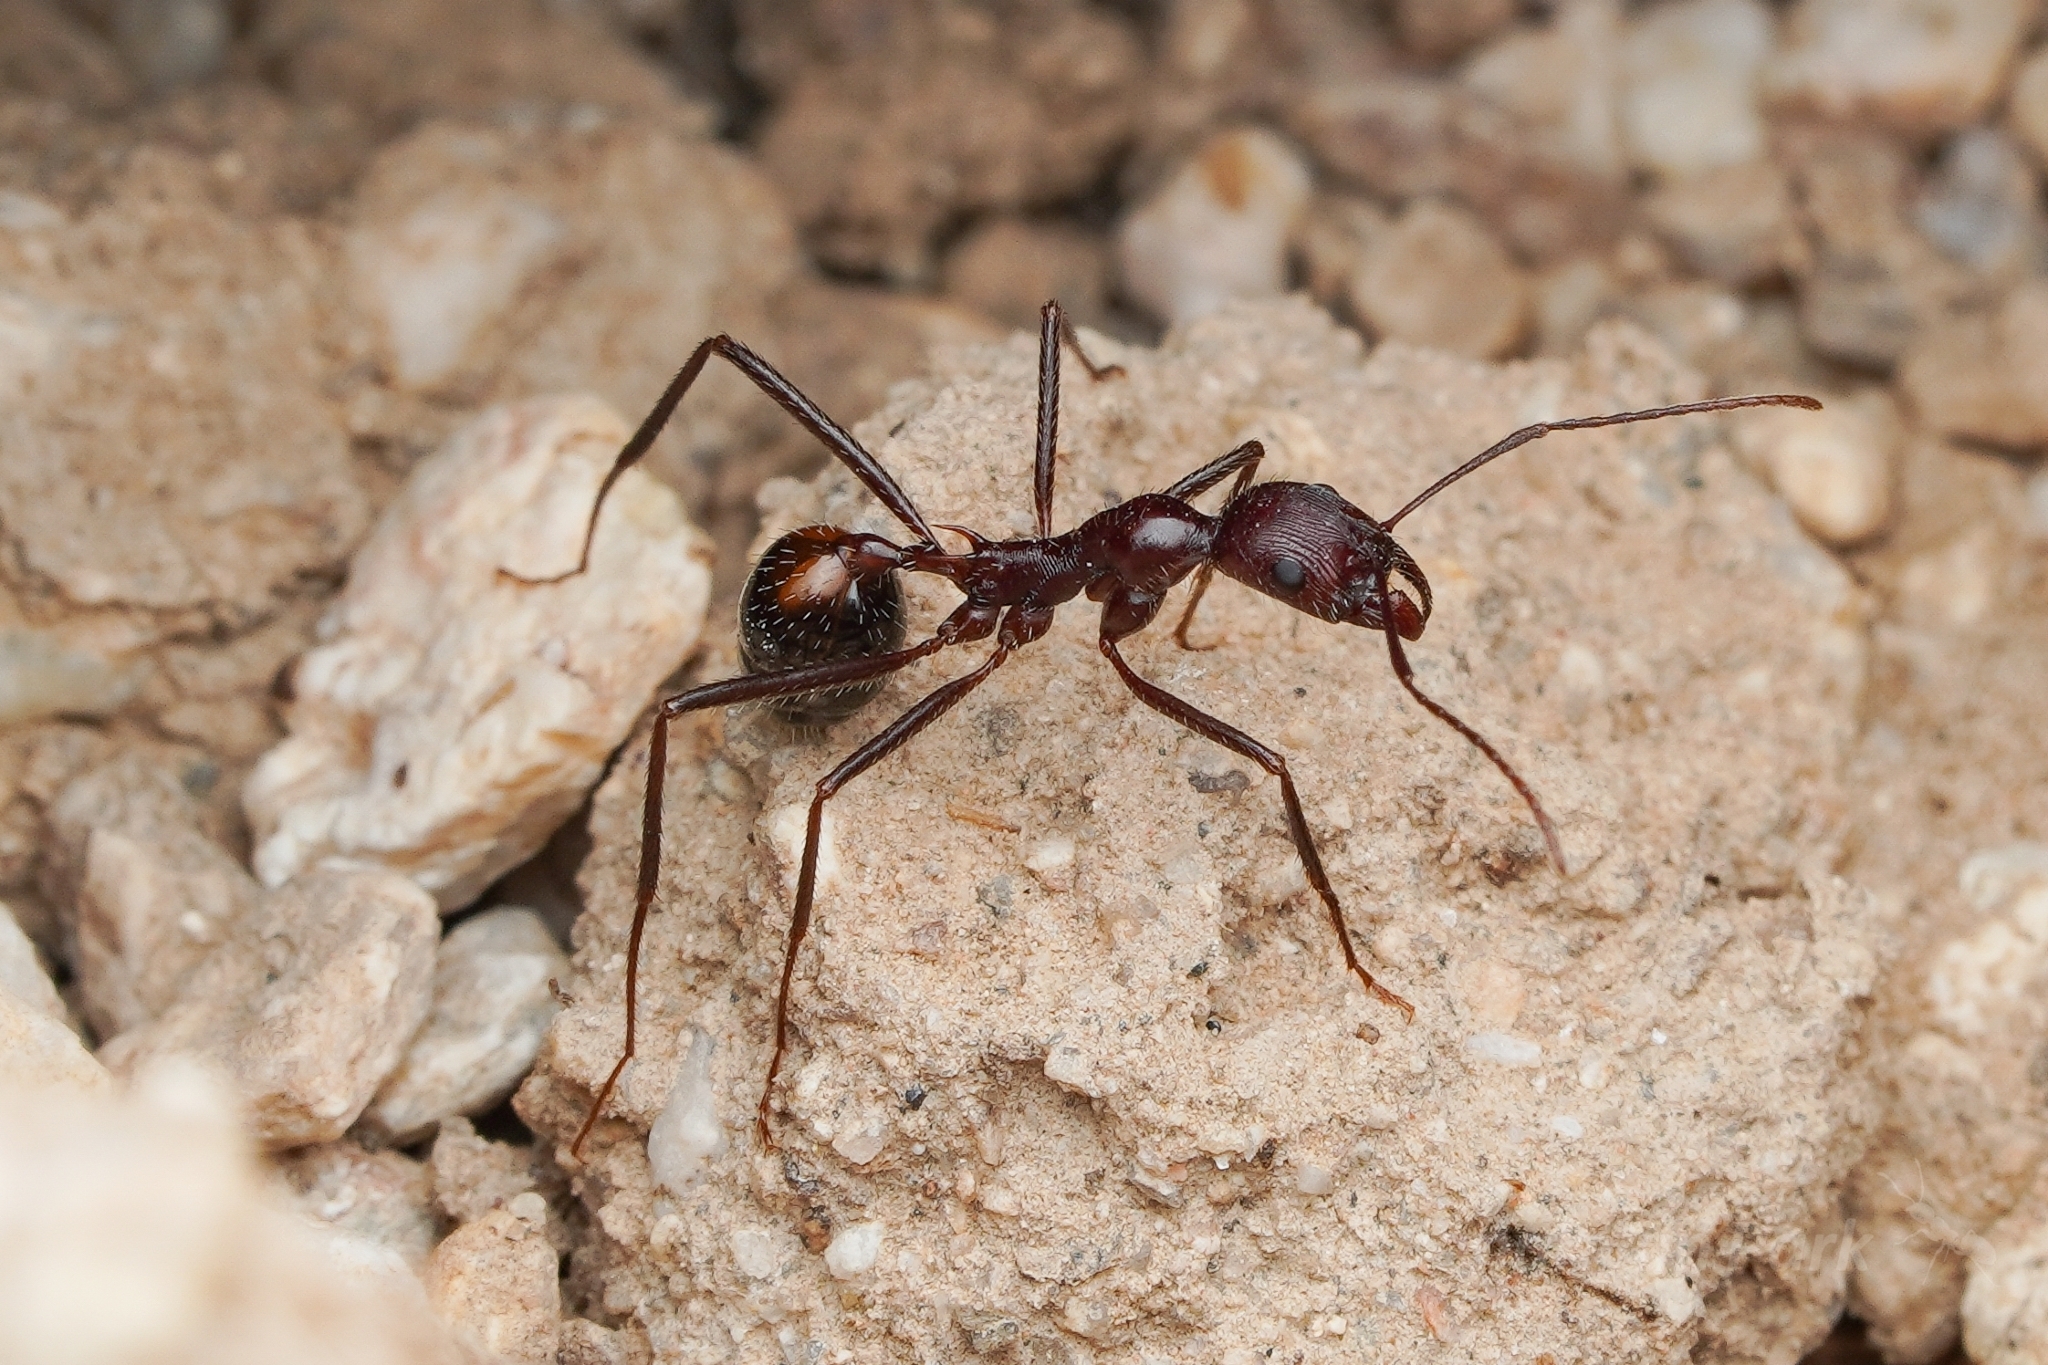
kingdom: Animalia
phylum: Arthropoda
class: Insecta
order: Hymenoptera
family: Formicidae
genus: Novomessor
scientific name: Novomessor cockerelli
